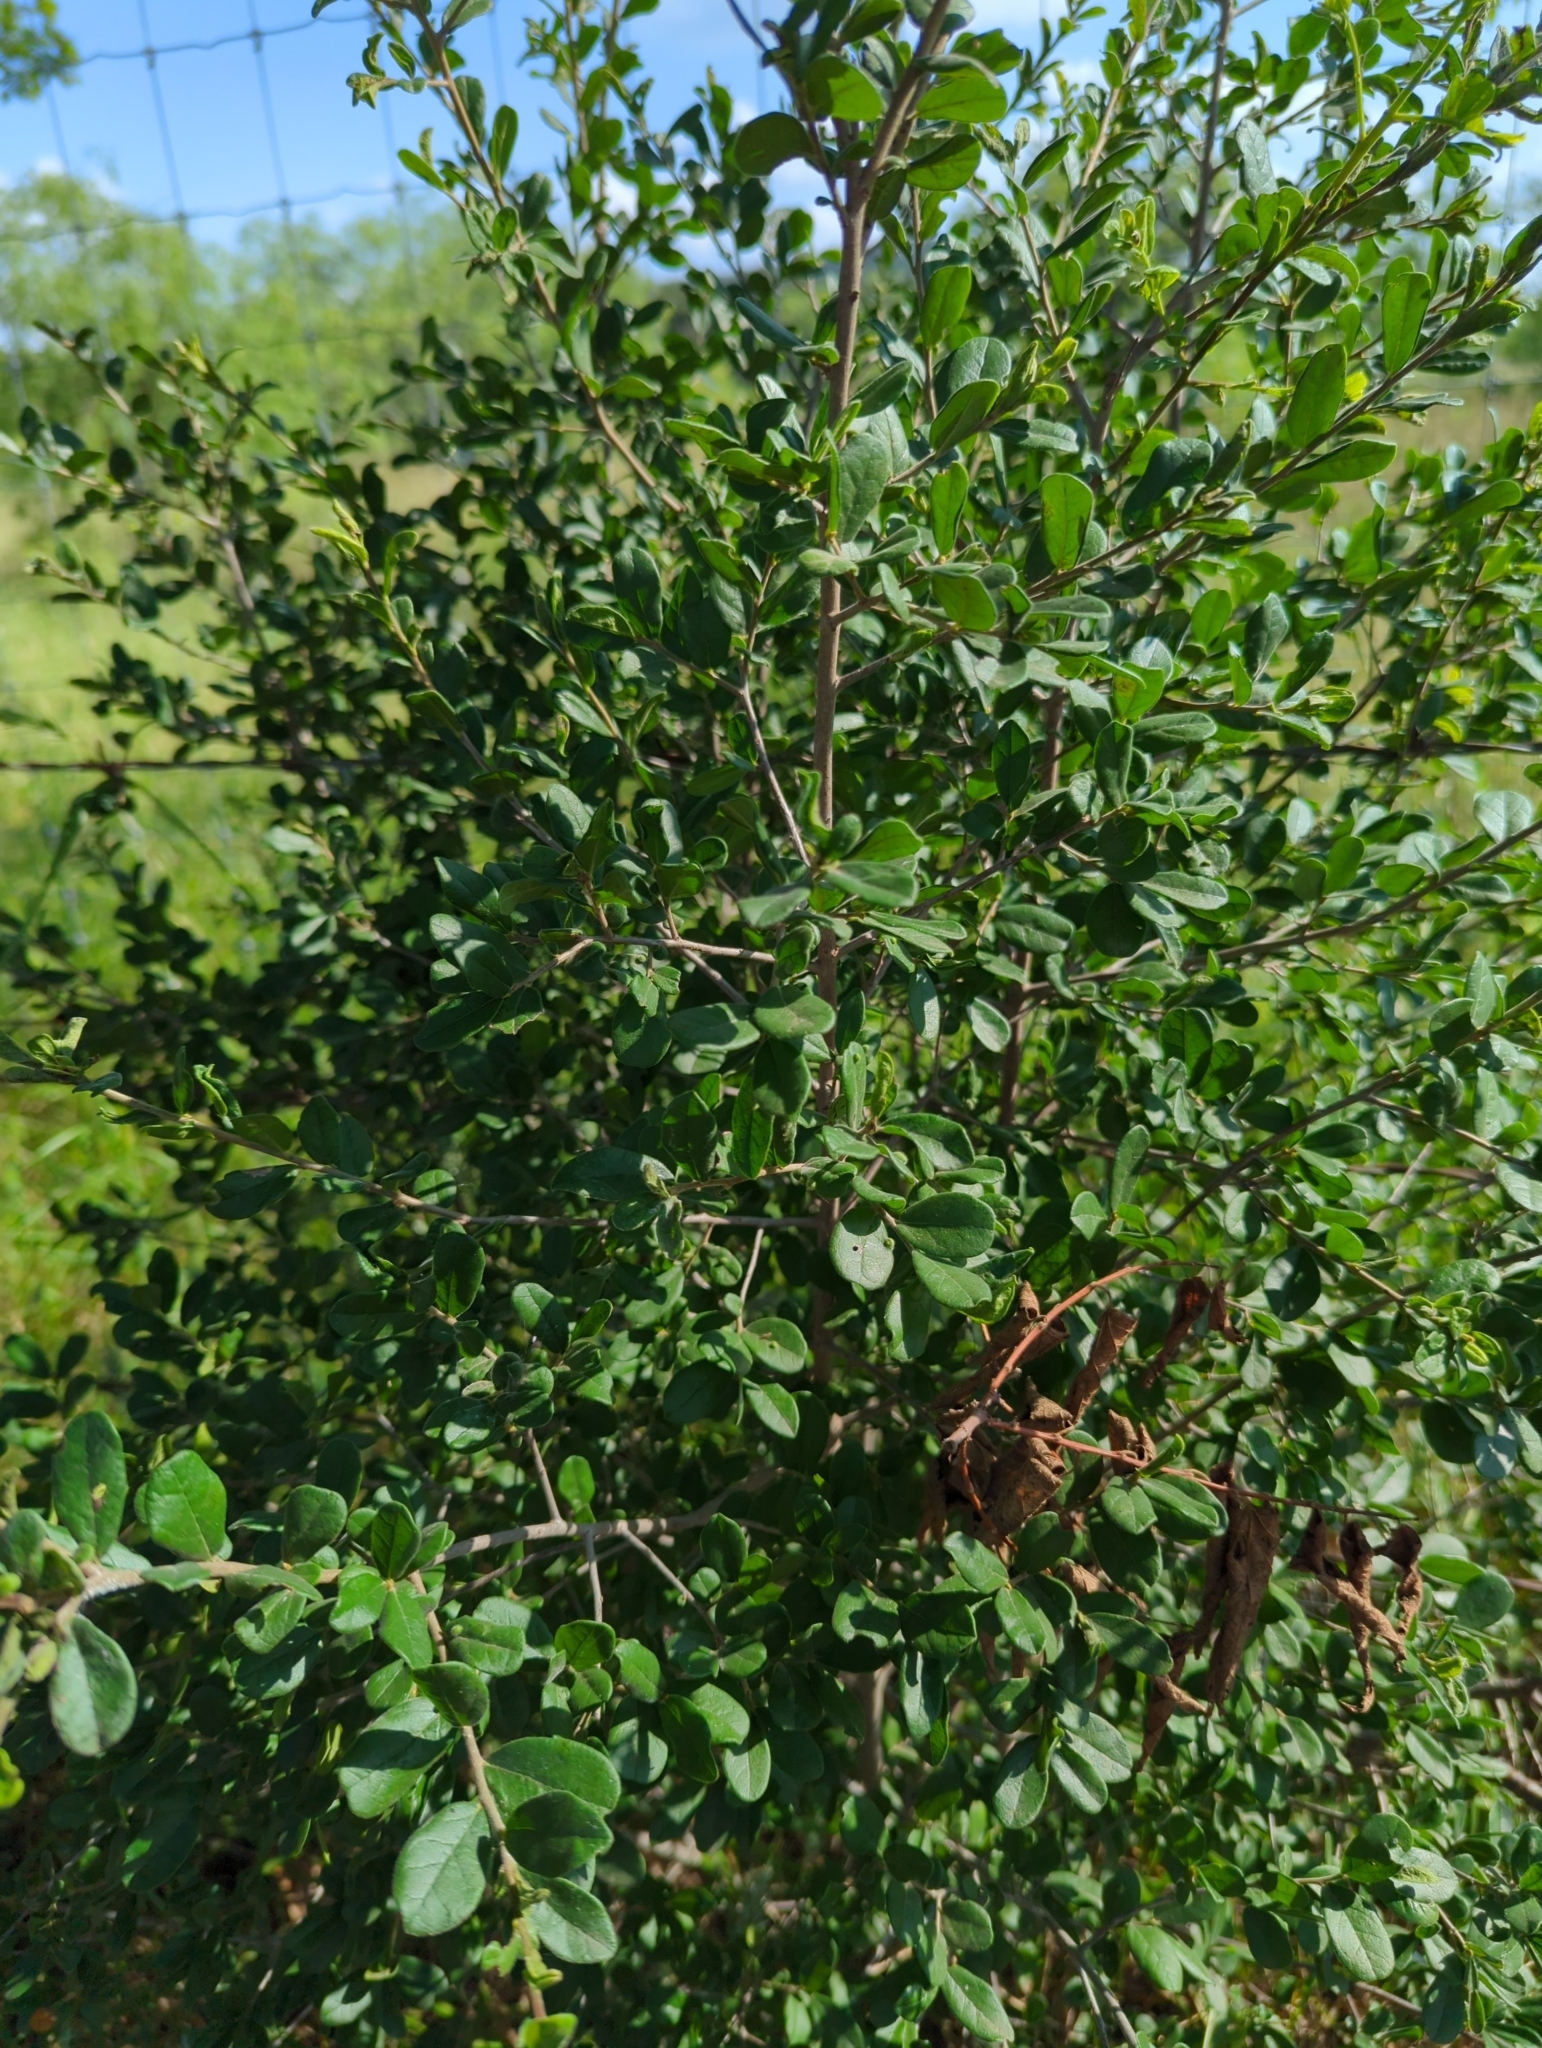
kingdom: Plantae
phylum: Tracheophyta
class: Magnoliopsida
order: Ericales
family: Ebenaceae
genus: Diospyros
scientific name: Diospyros texana
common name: Texas persimmon
